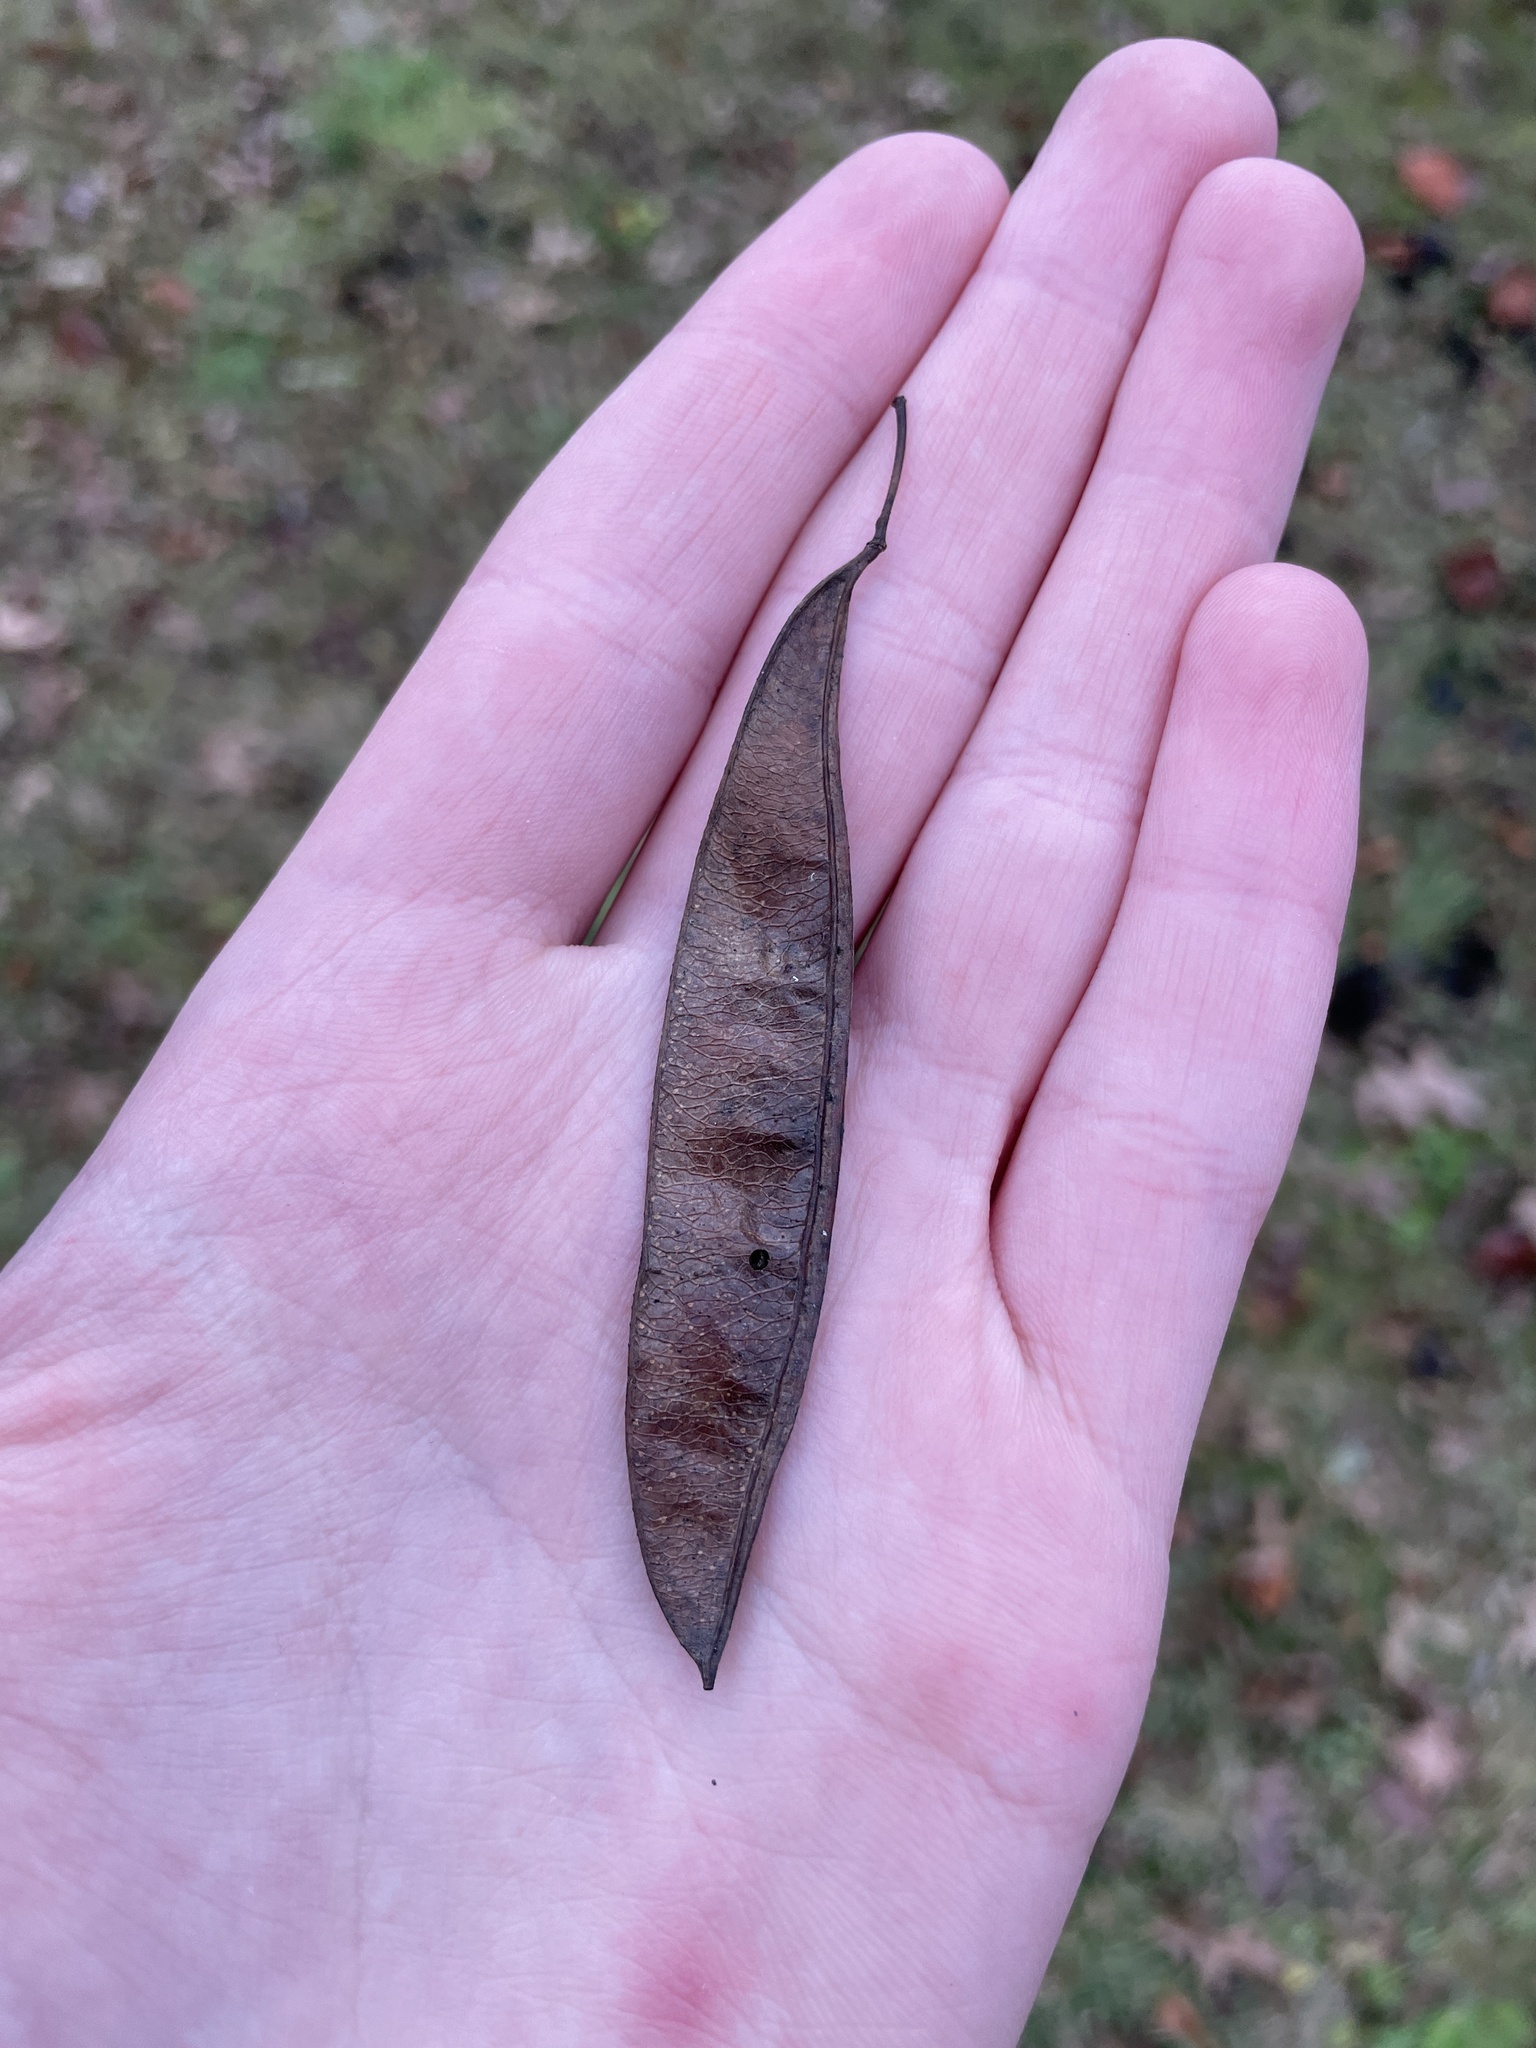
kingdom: Animalia
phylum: Arthropoda
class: Insecta
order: Coleoptera
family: Chrysomelidae
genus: Gibbobruchus
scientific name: Gibbobruchus mimus
